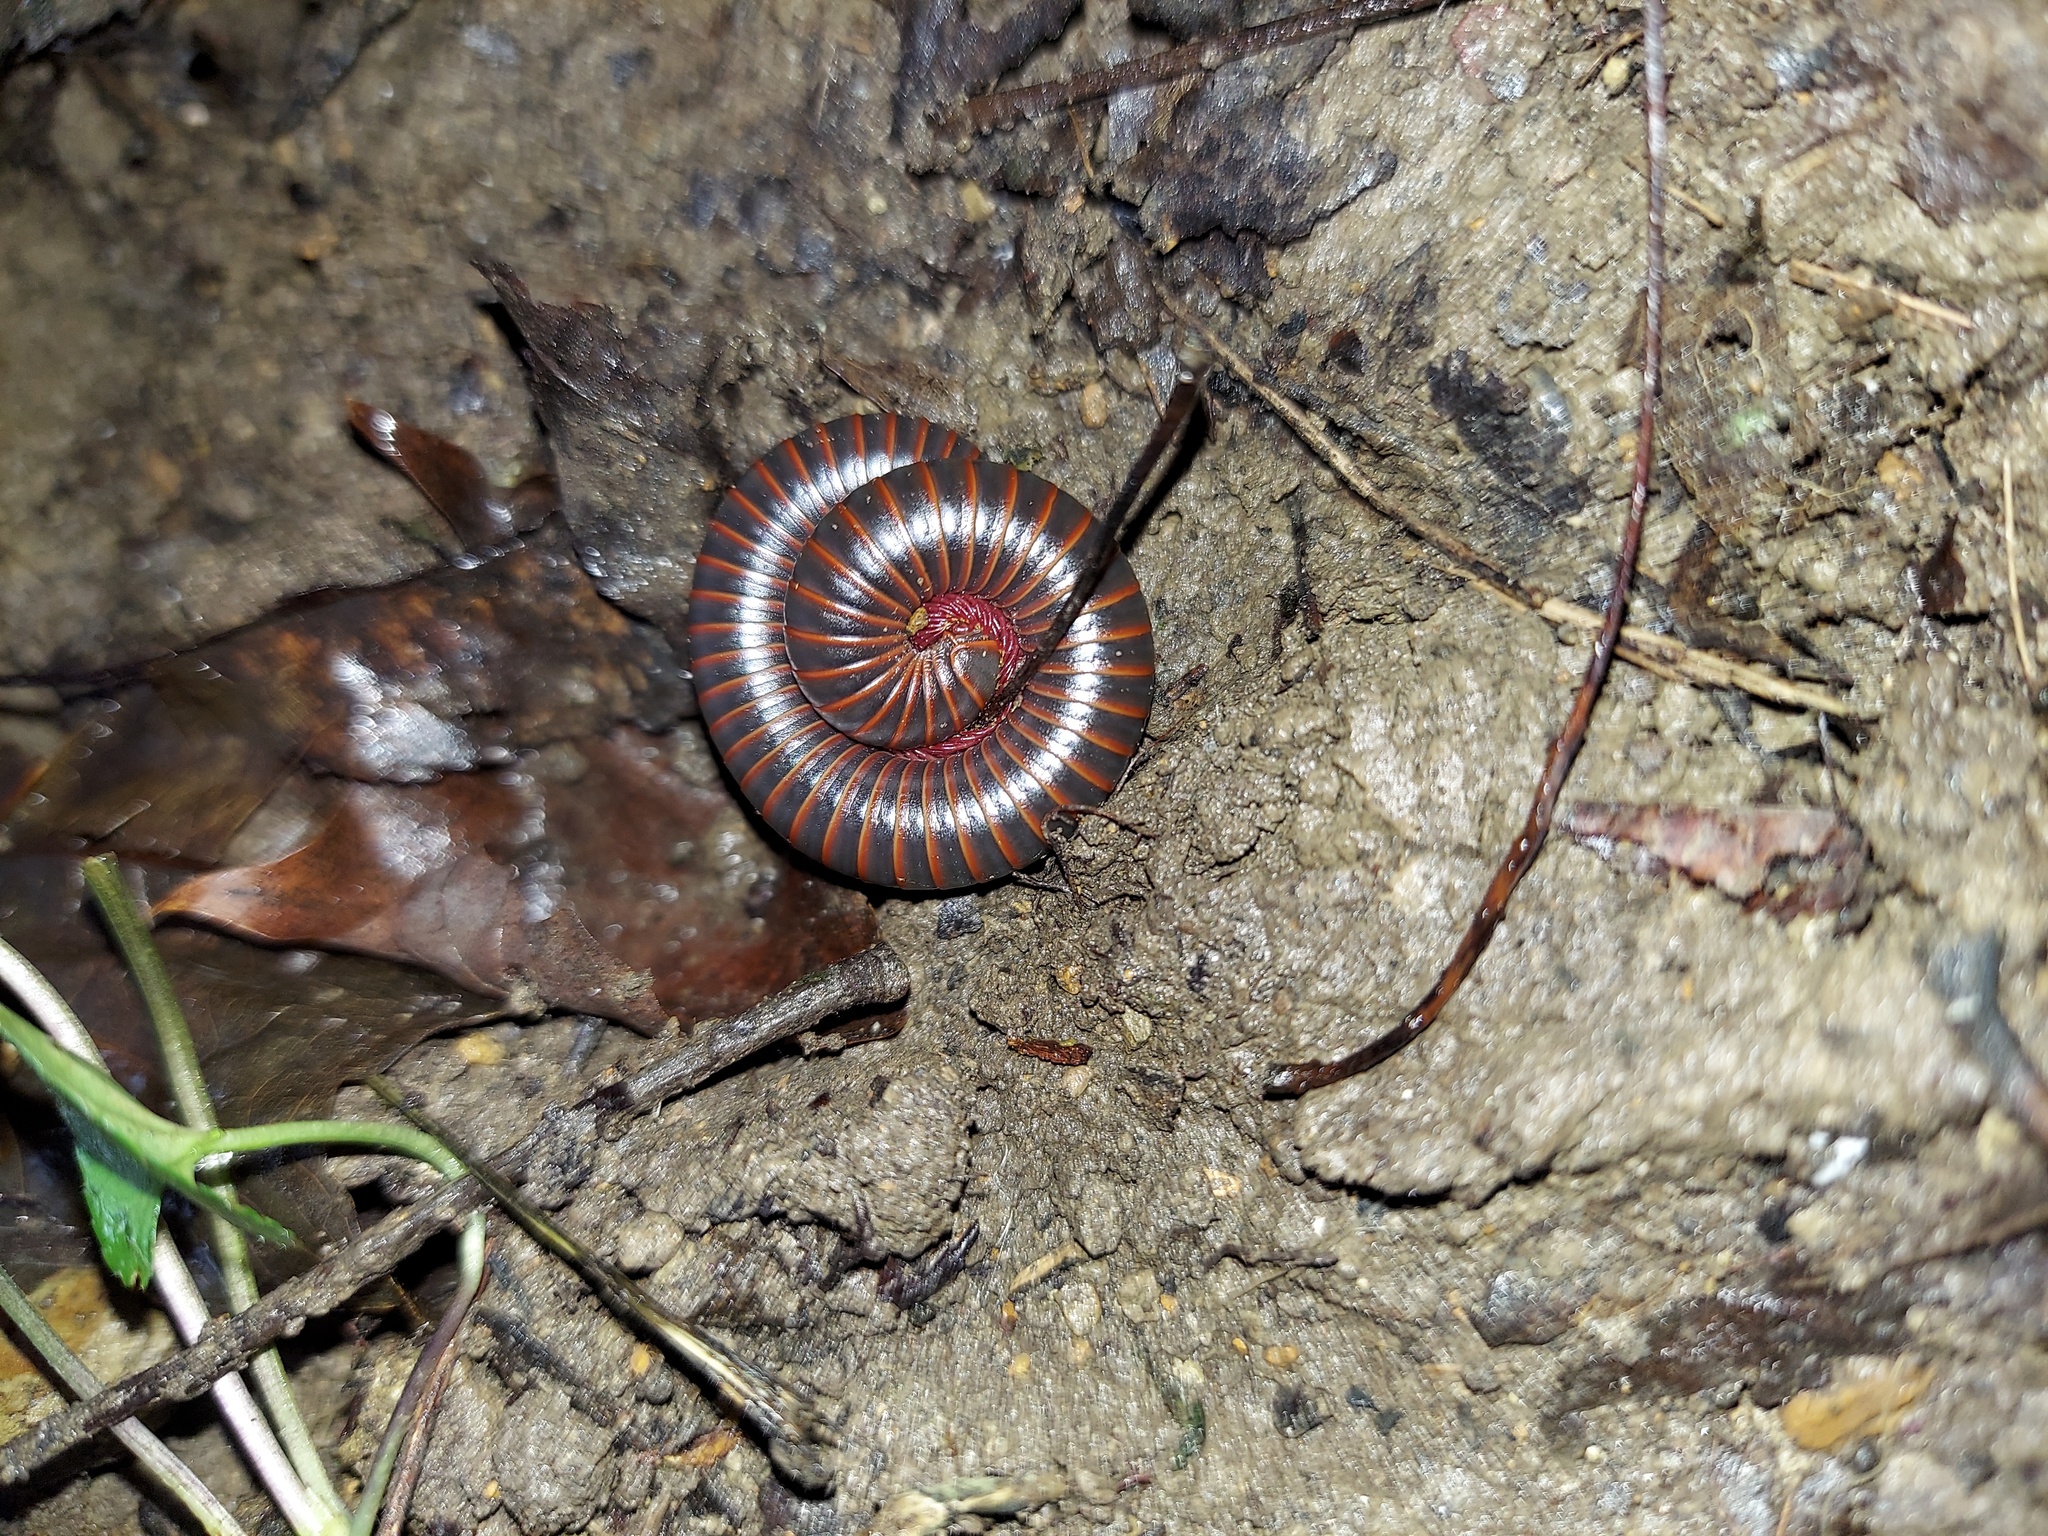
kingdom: Animalia
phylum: Arthropoda
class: Diplopoda
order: Spirobolida
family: Spirobolidae
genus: Narceus
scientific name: Narceus
